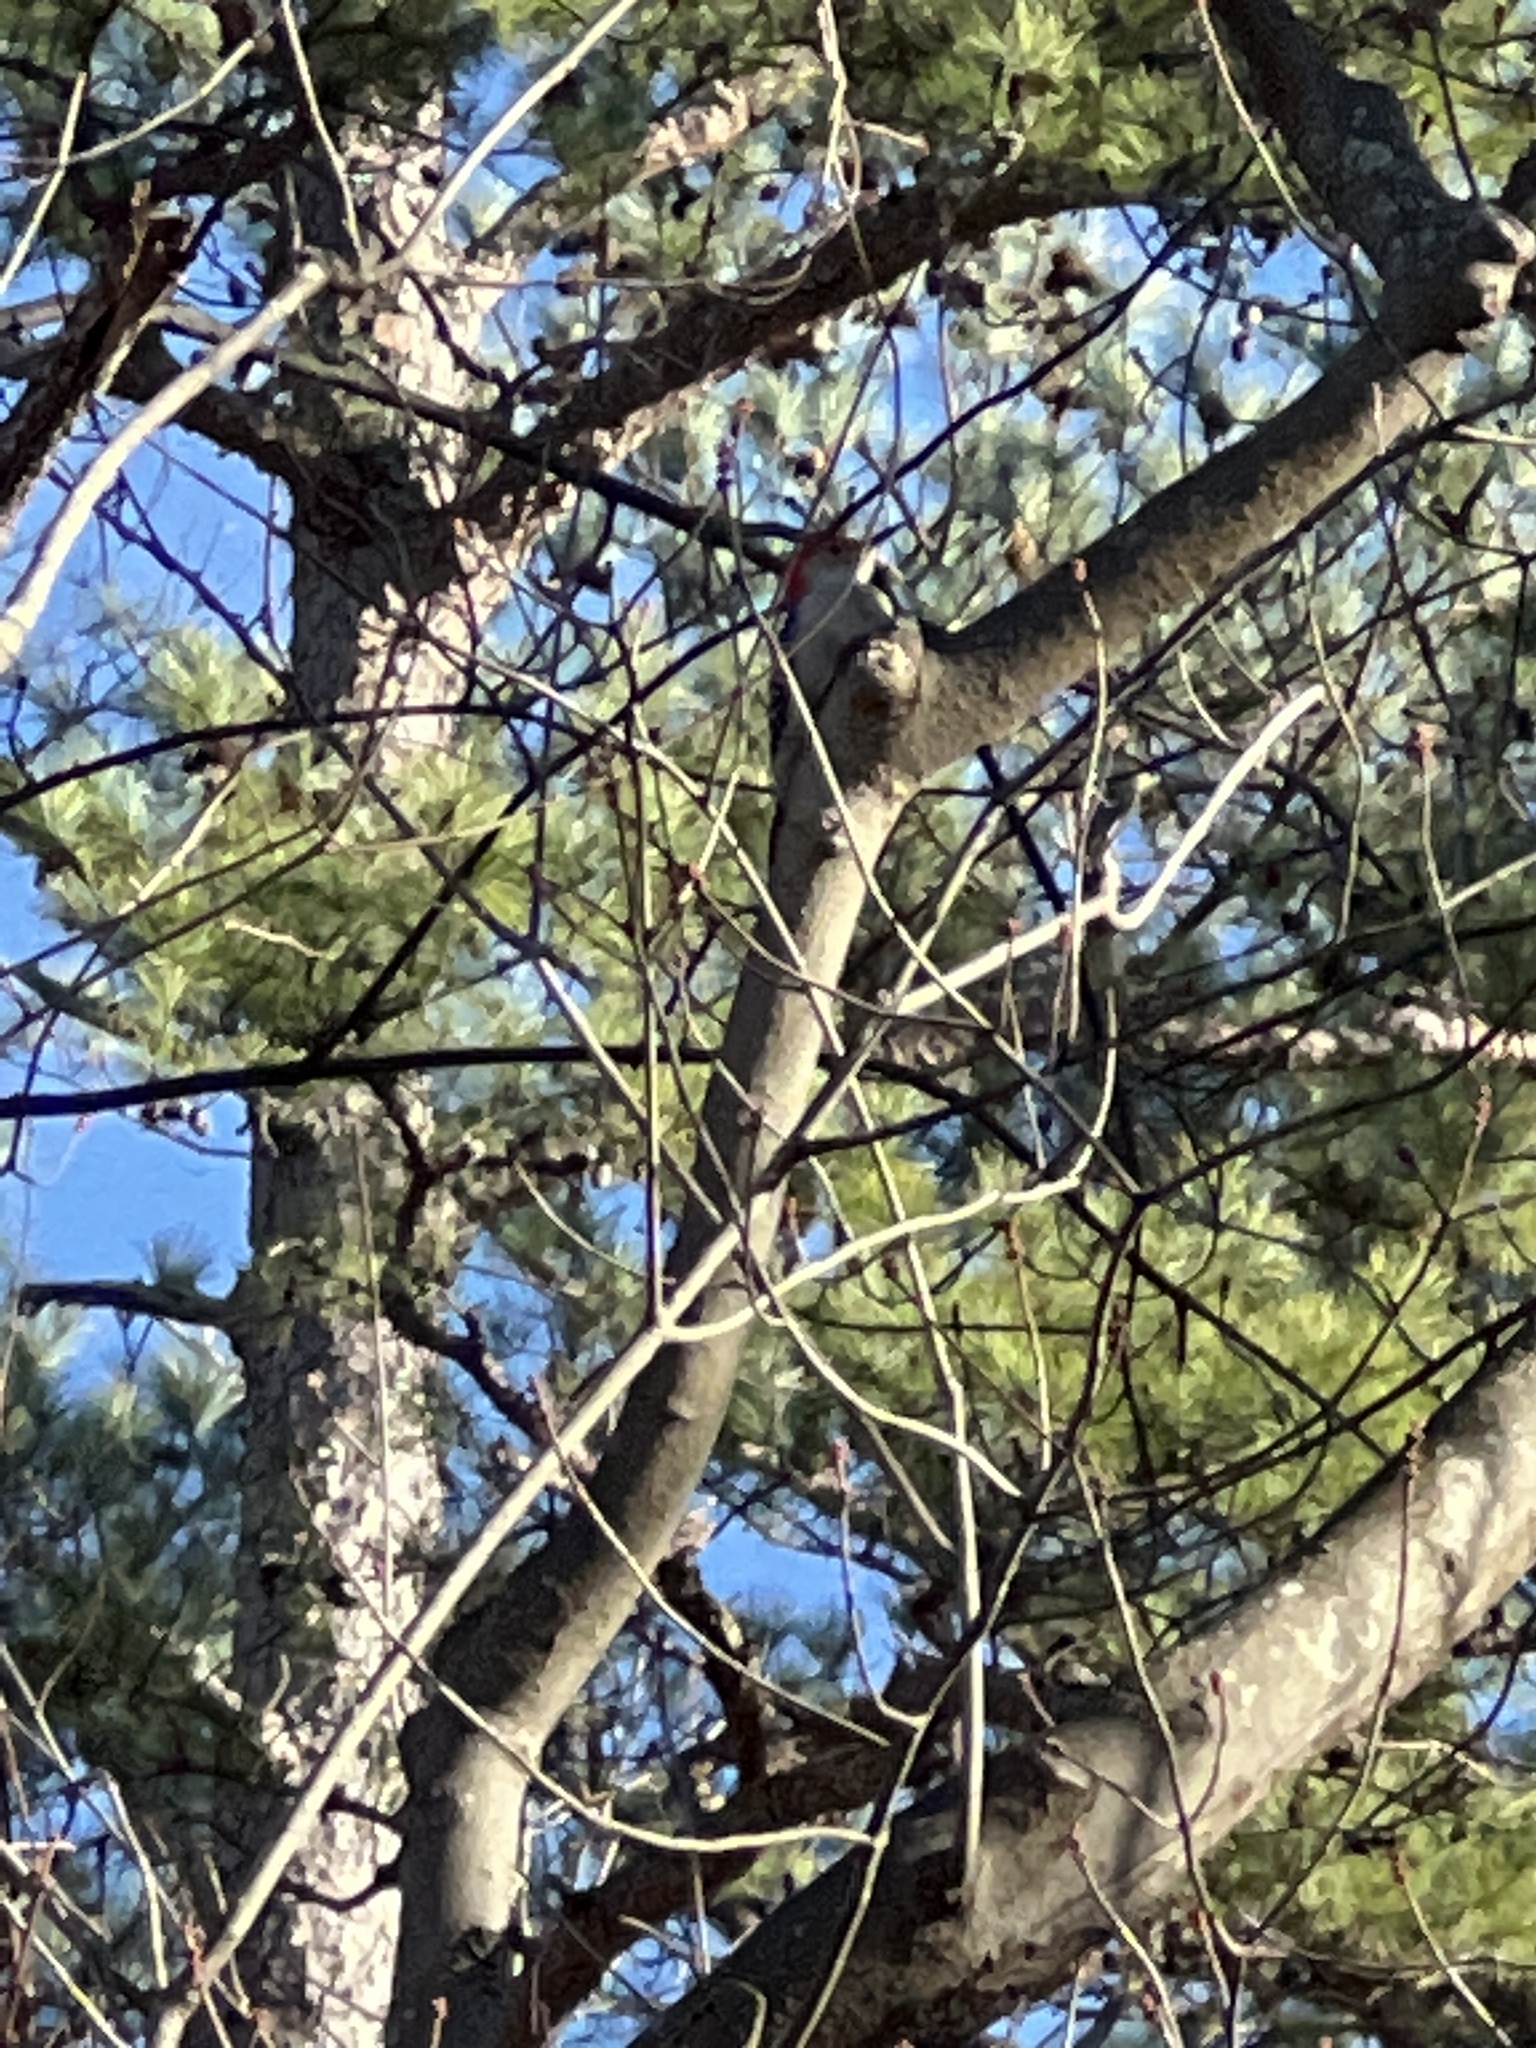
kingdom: Animalia
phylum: Chordata
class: Aves
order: Piciformes
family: Picidae
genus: Melanerpes
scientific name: Melanerpes carolinus
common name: Red-bellied woodpecker
